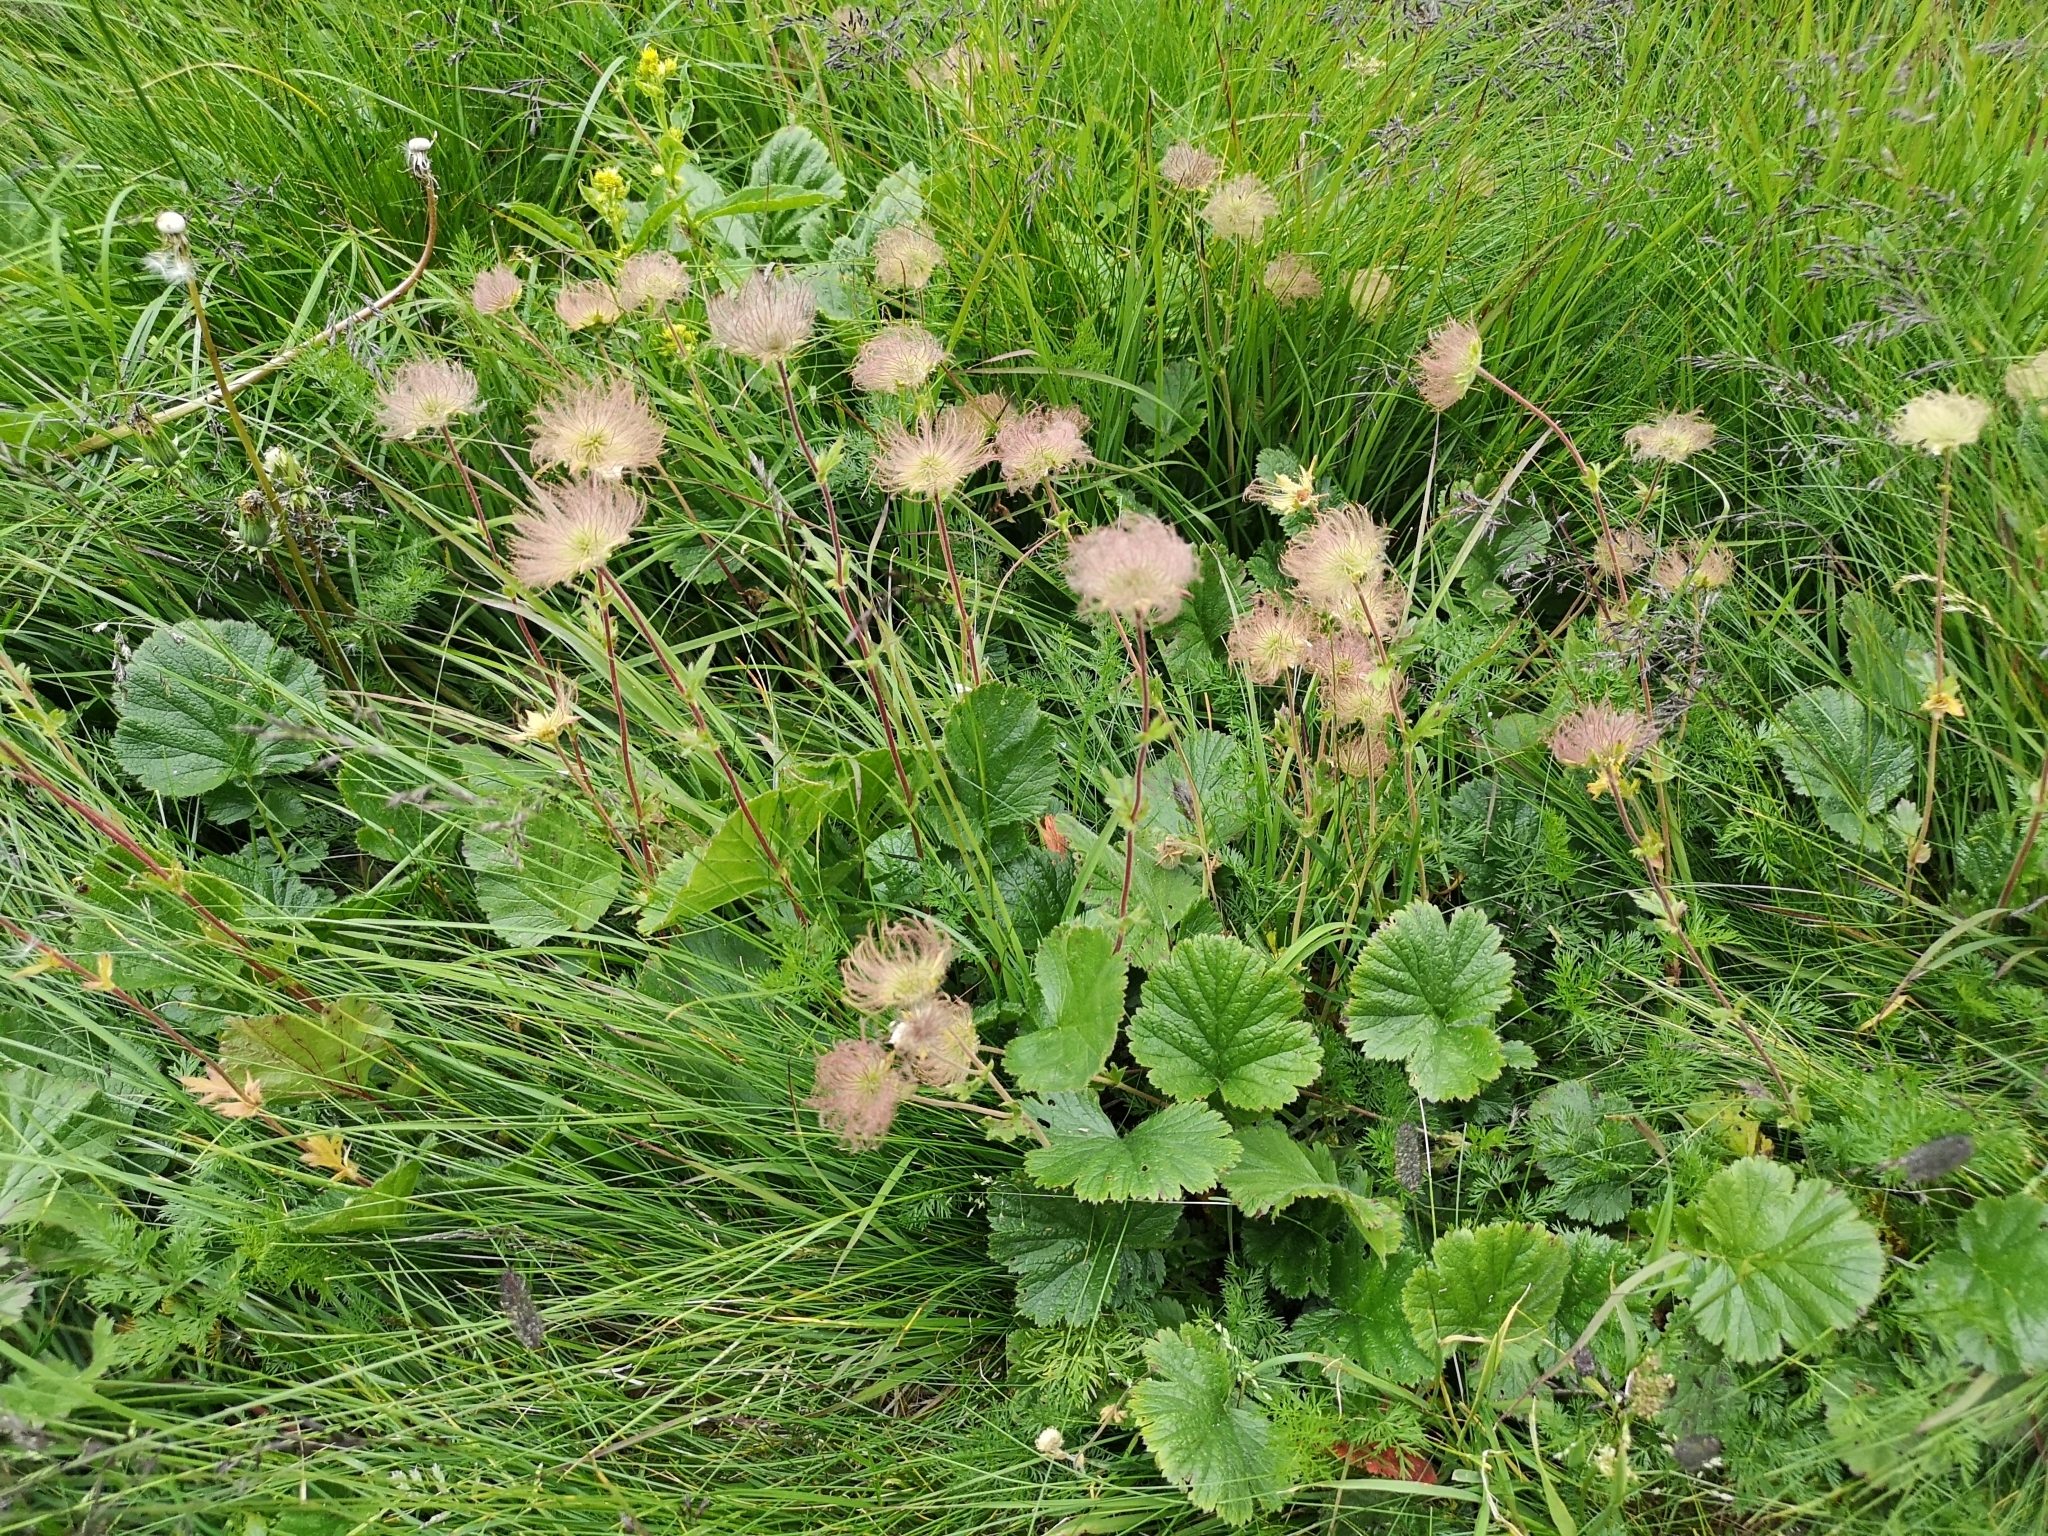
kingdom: Plantae
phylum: Tracheophyta
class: Magnoliopsida
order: Rosales
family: Rosaceae
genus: Geum
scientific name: Geum montanum
